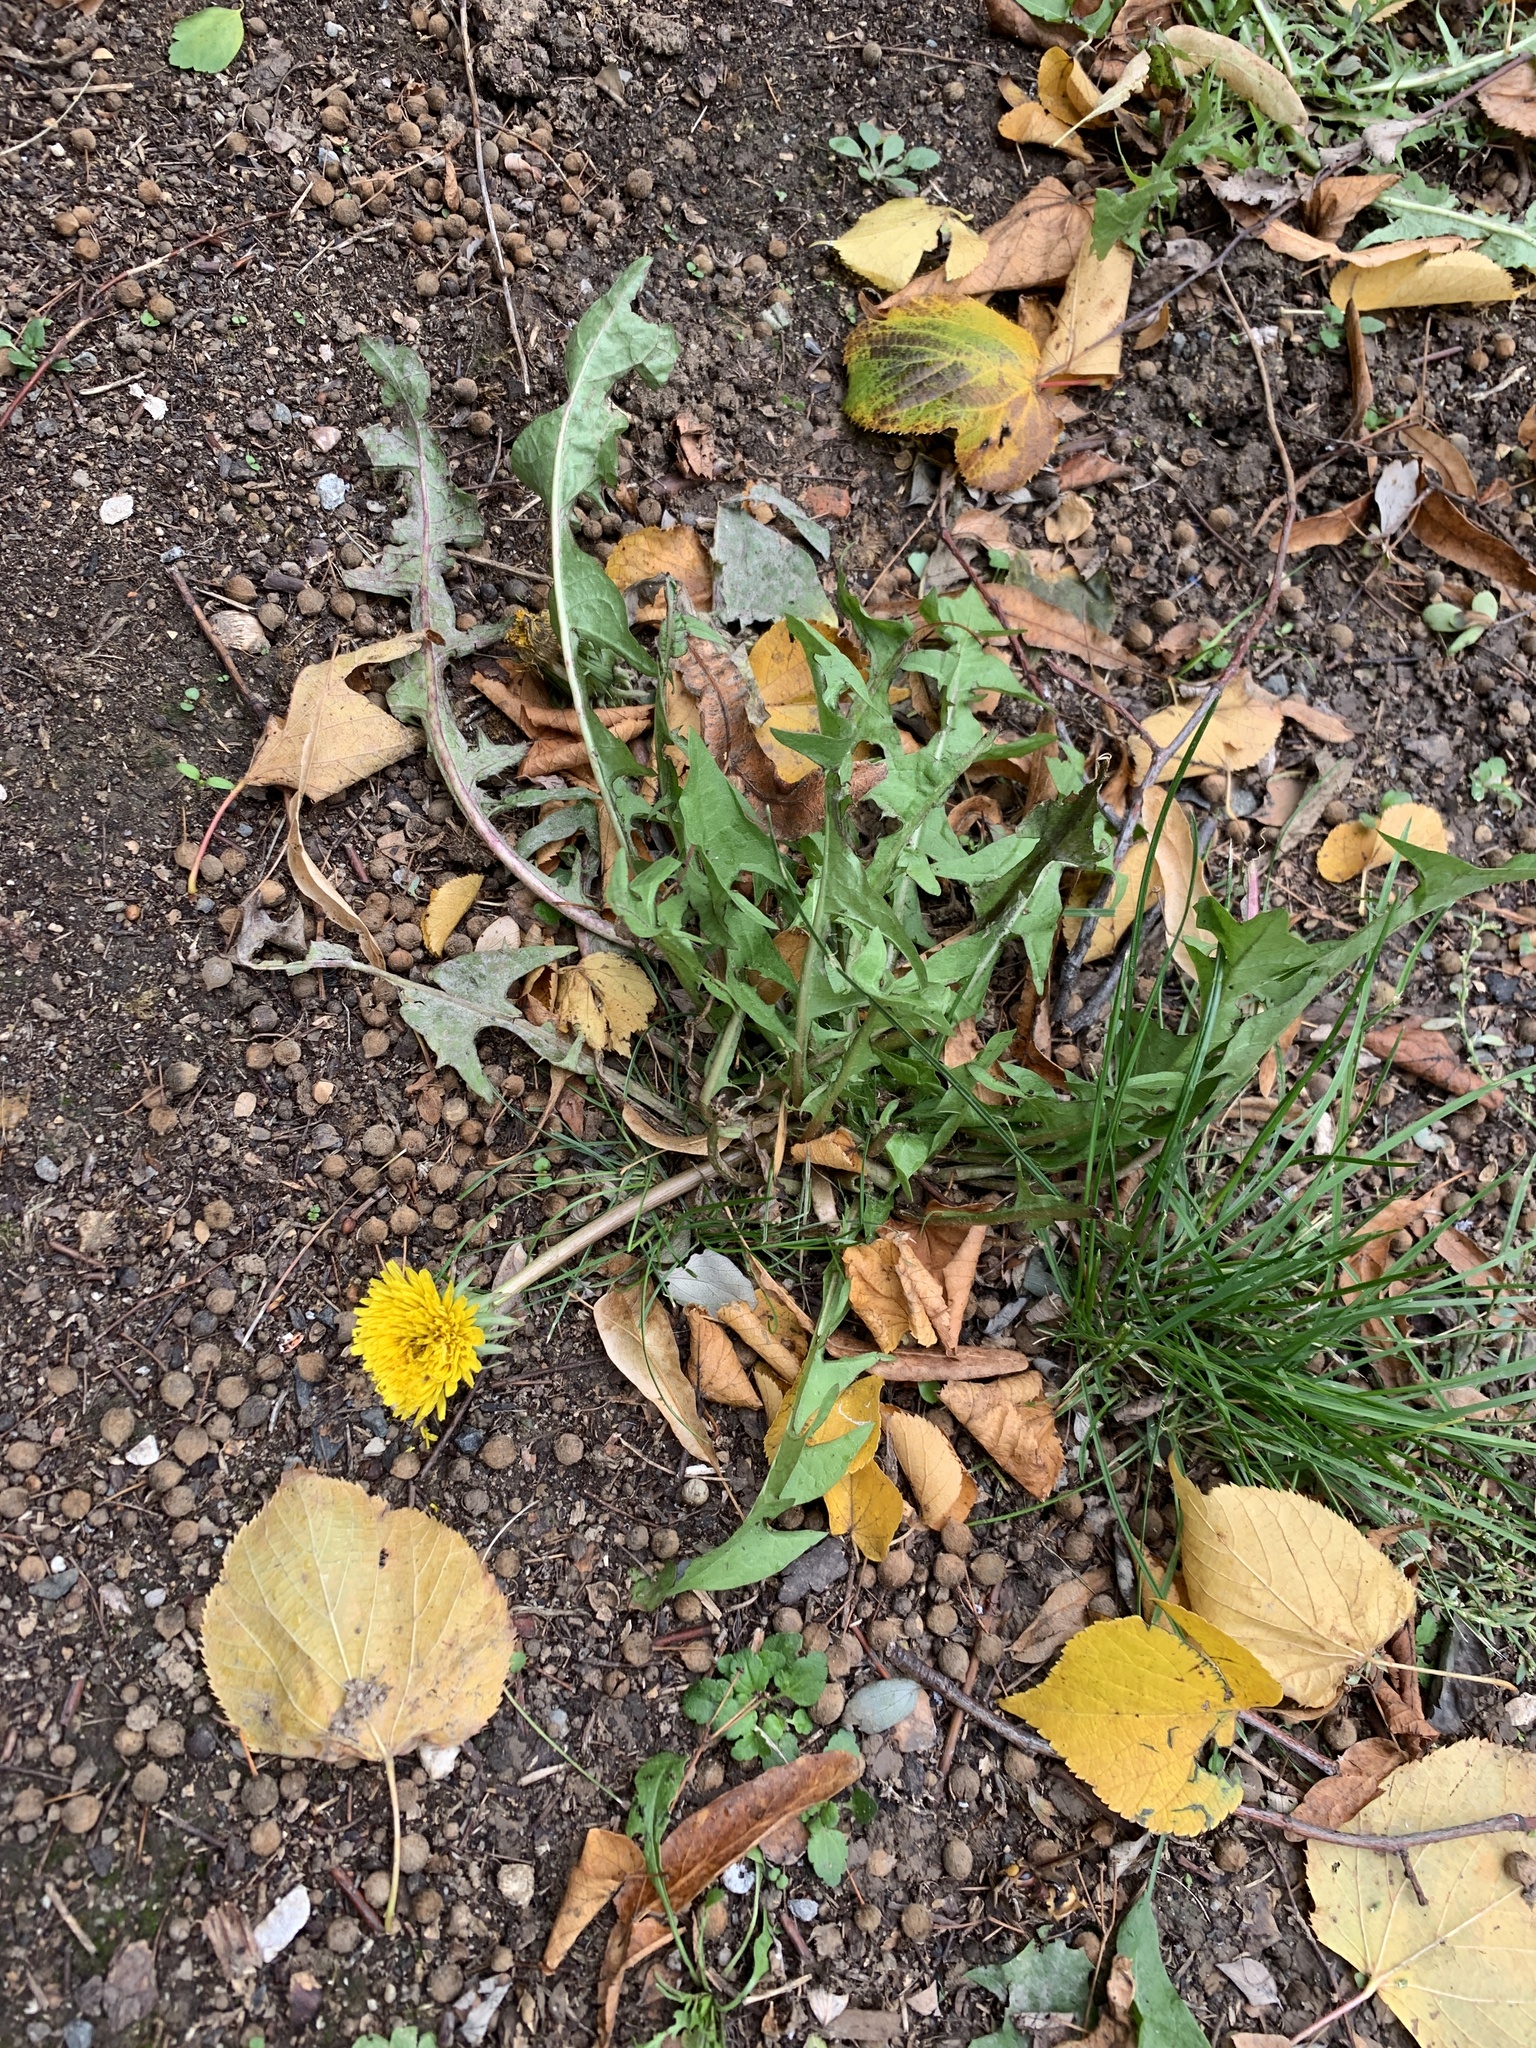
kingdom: Plantae
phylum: Tracheophyta
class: Magnoliopsida
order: Asterales
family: Asteraceae
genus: Taraxacum
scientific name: Taraxacum officinale
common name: Common dandelion
